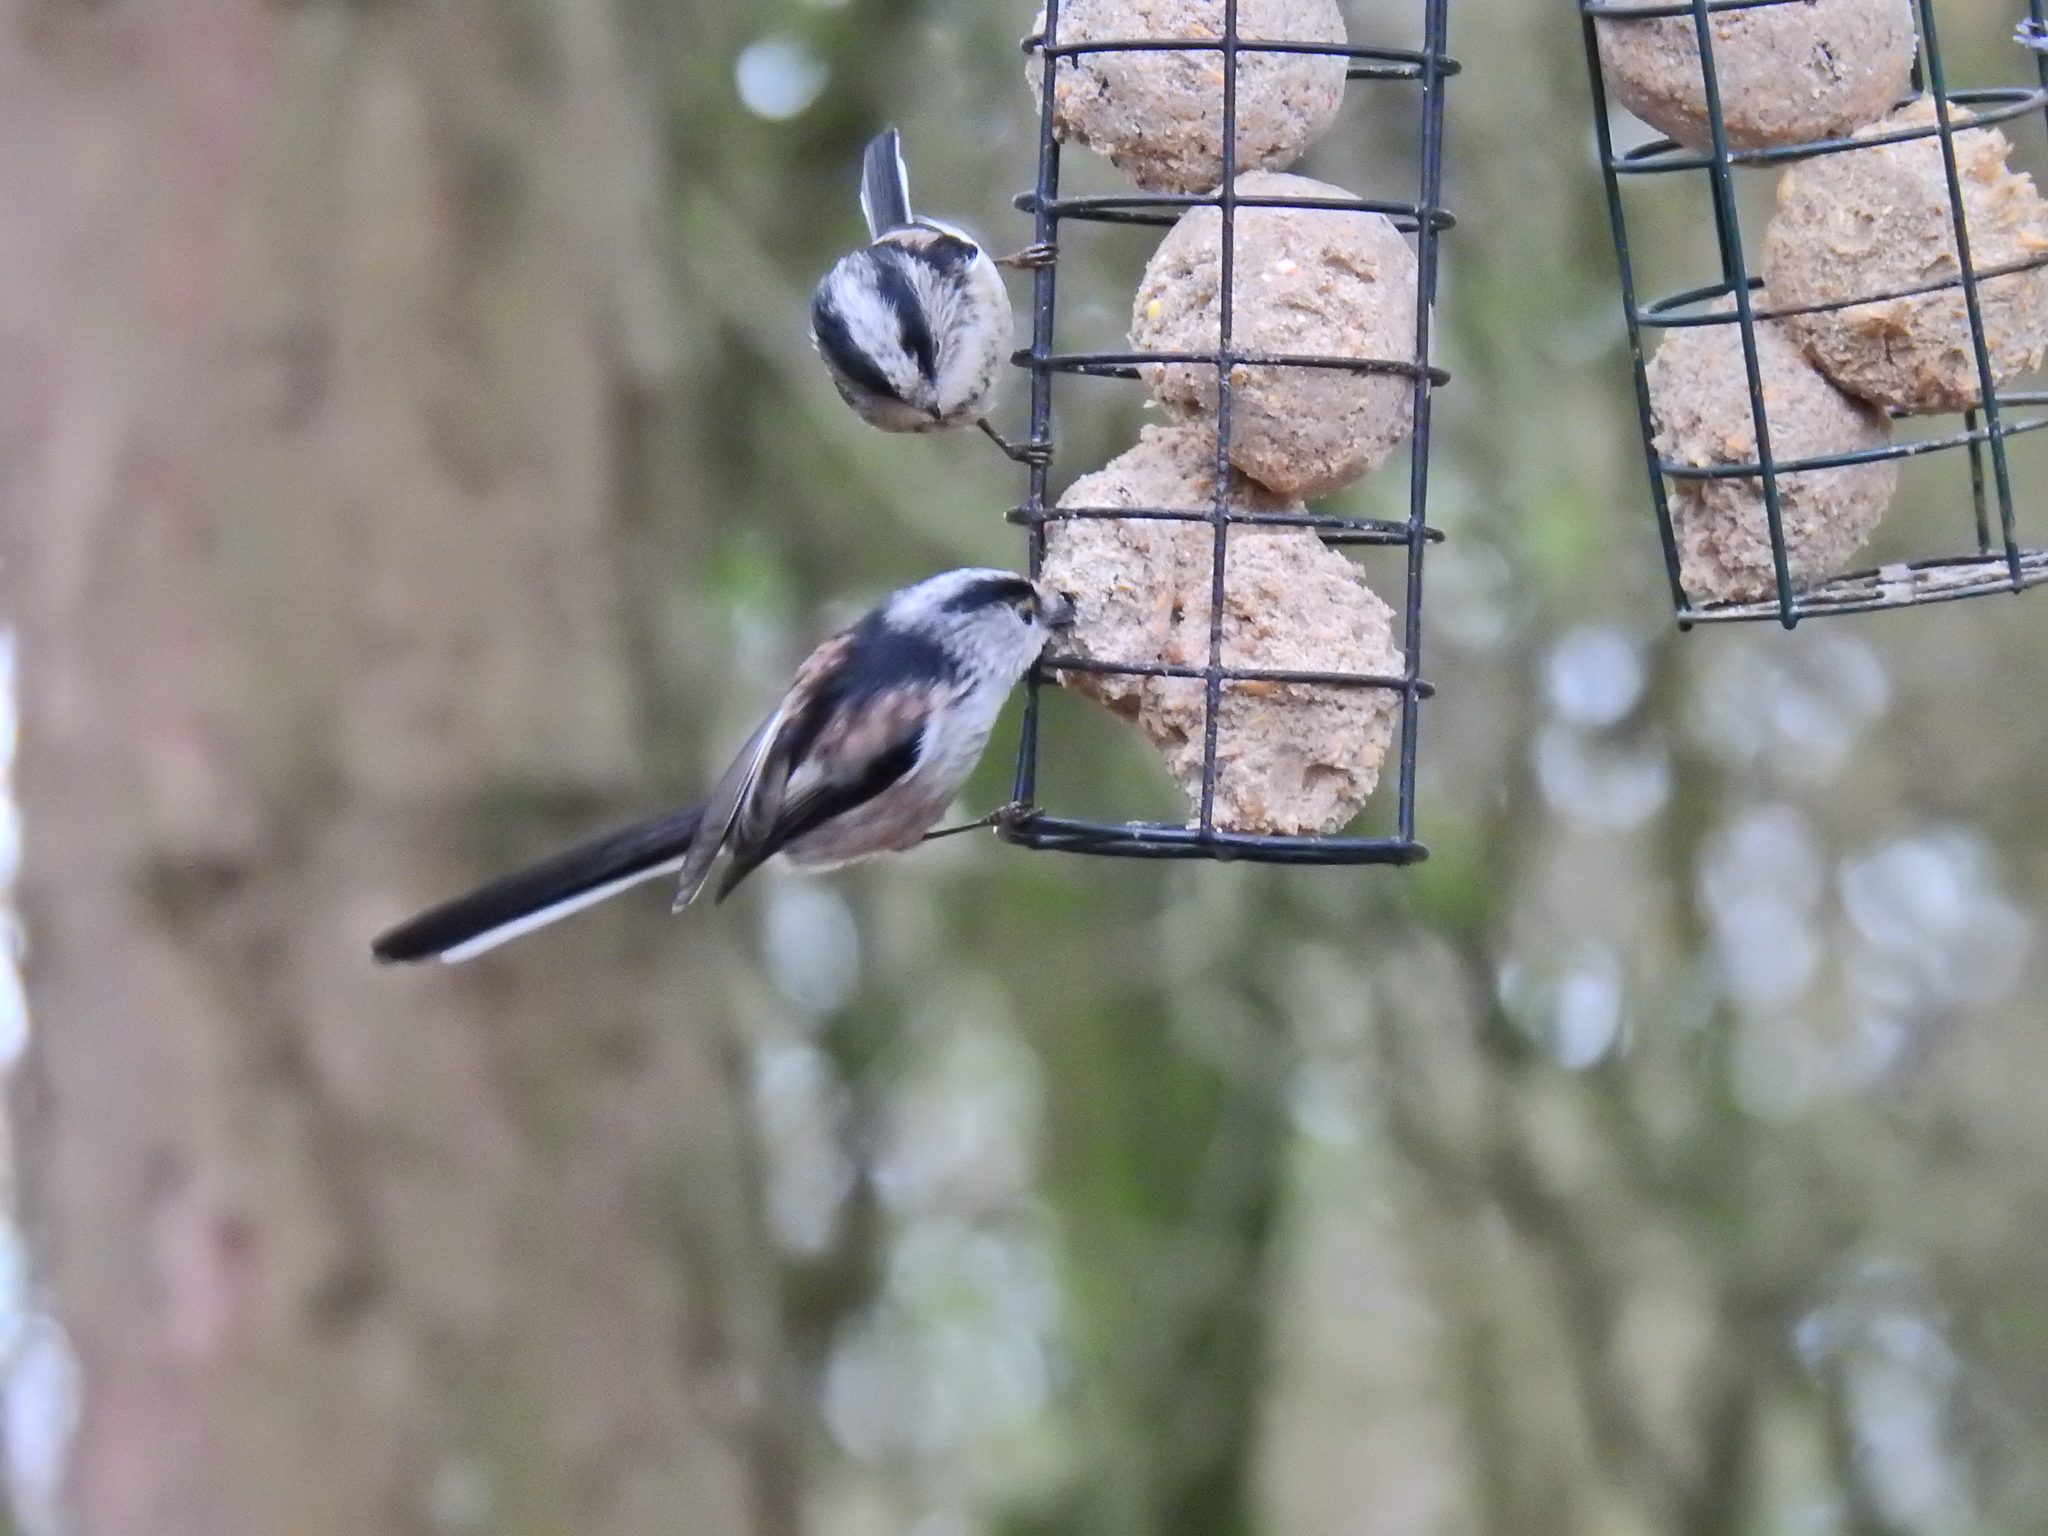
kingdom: Animalia
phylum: Chordata
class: Aves
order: Passeriformes
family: Aegithalidae
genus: Aegithalos
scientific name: Aegithalos caudatus
